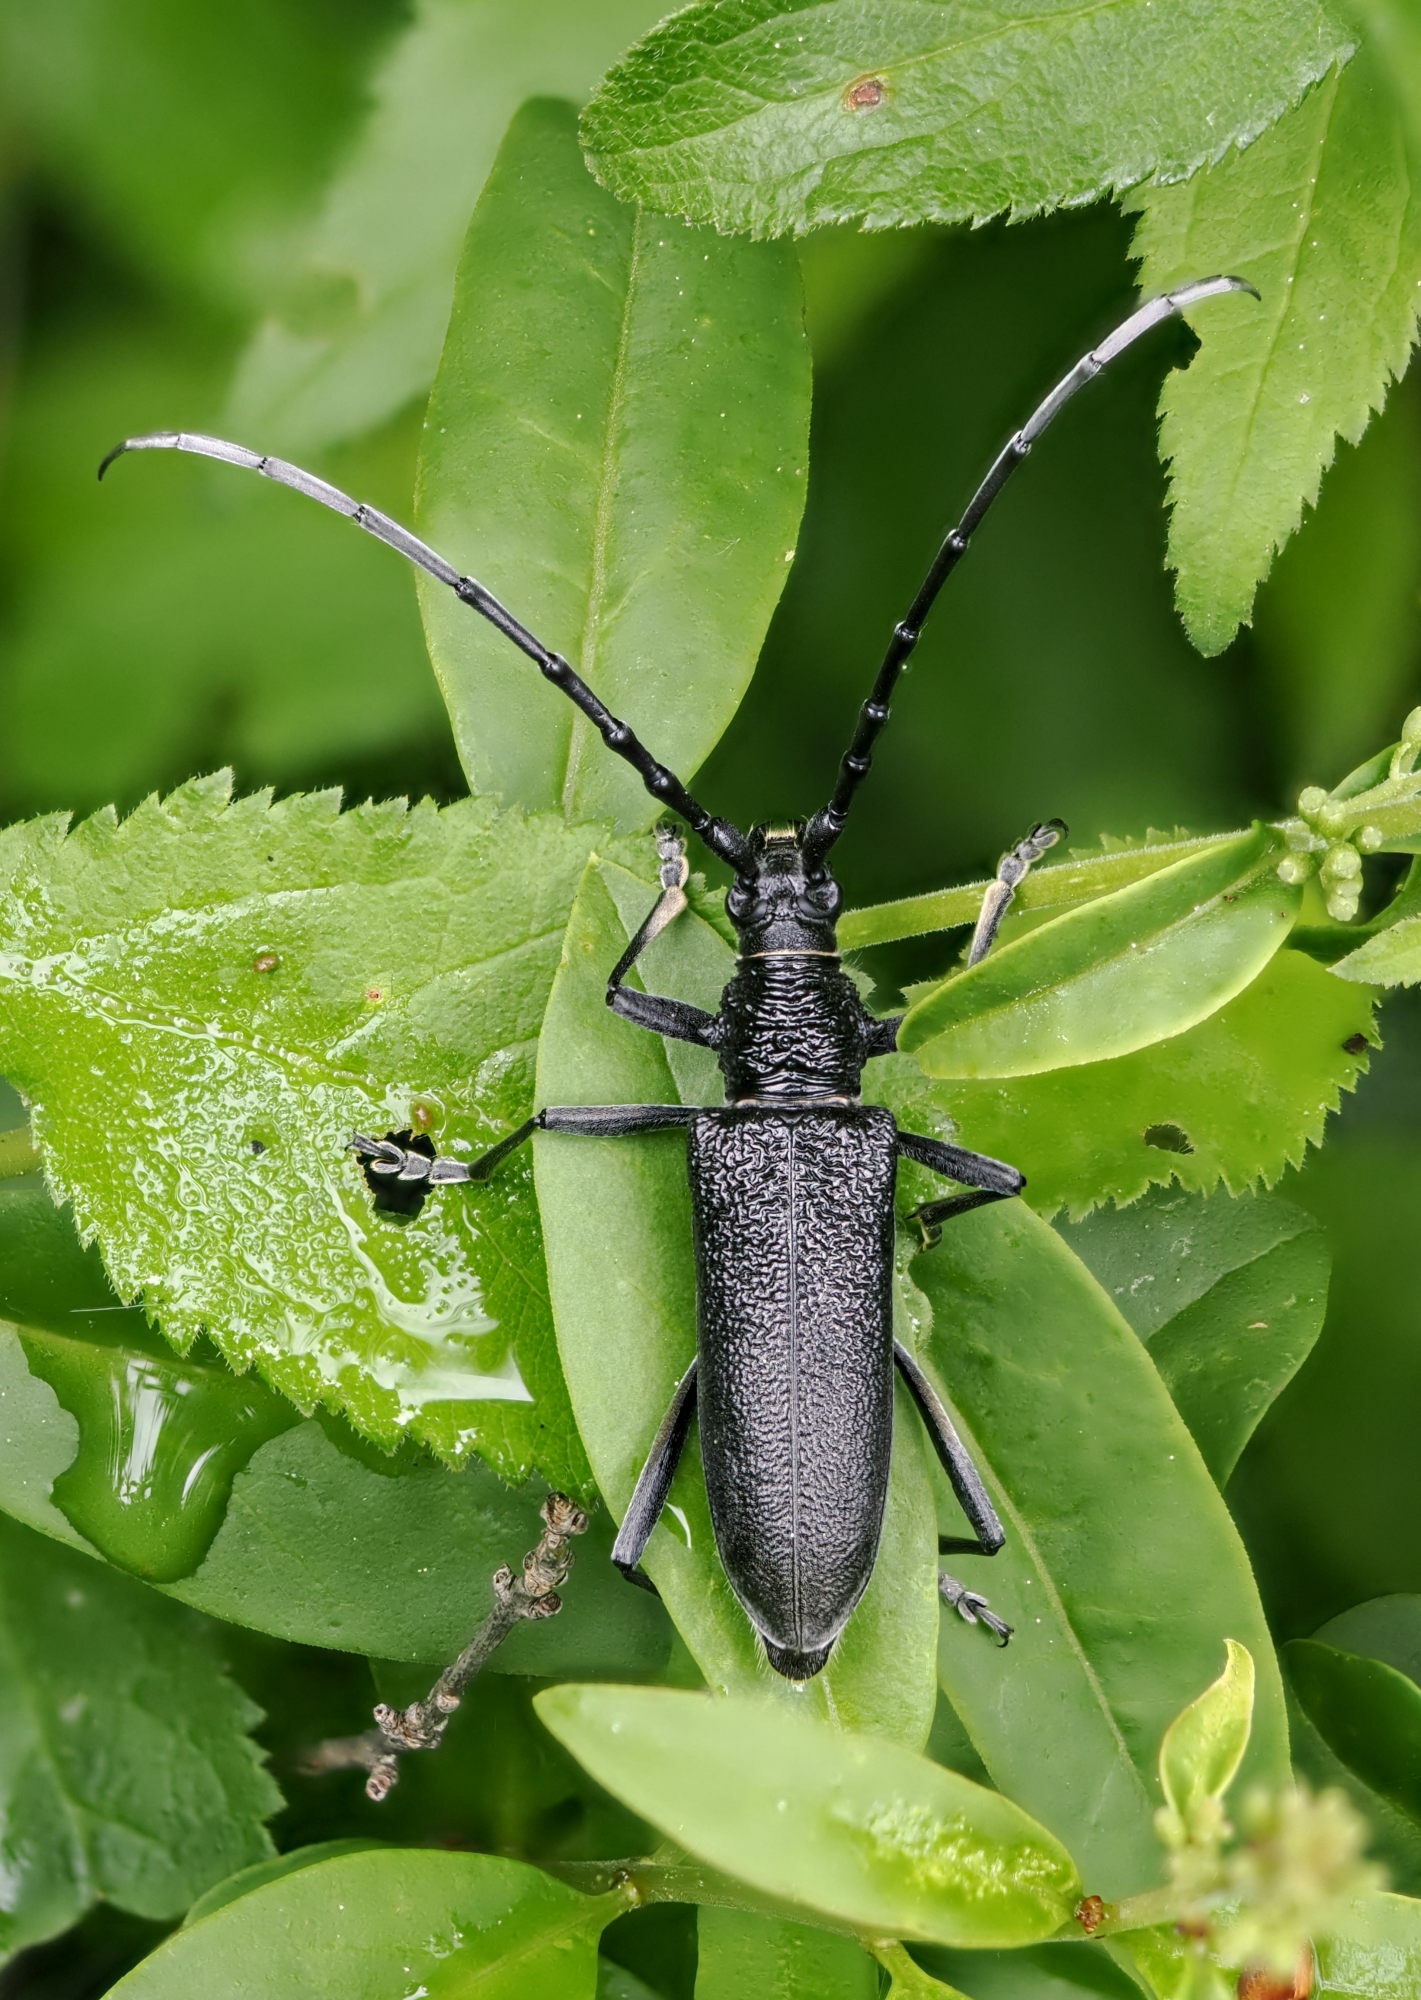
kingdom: Animalia
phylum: Arthropoda
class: Insecta
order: Coleoptera
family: Cerambycidae
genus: Cerambyx
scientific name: Cerambyx scopolii
